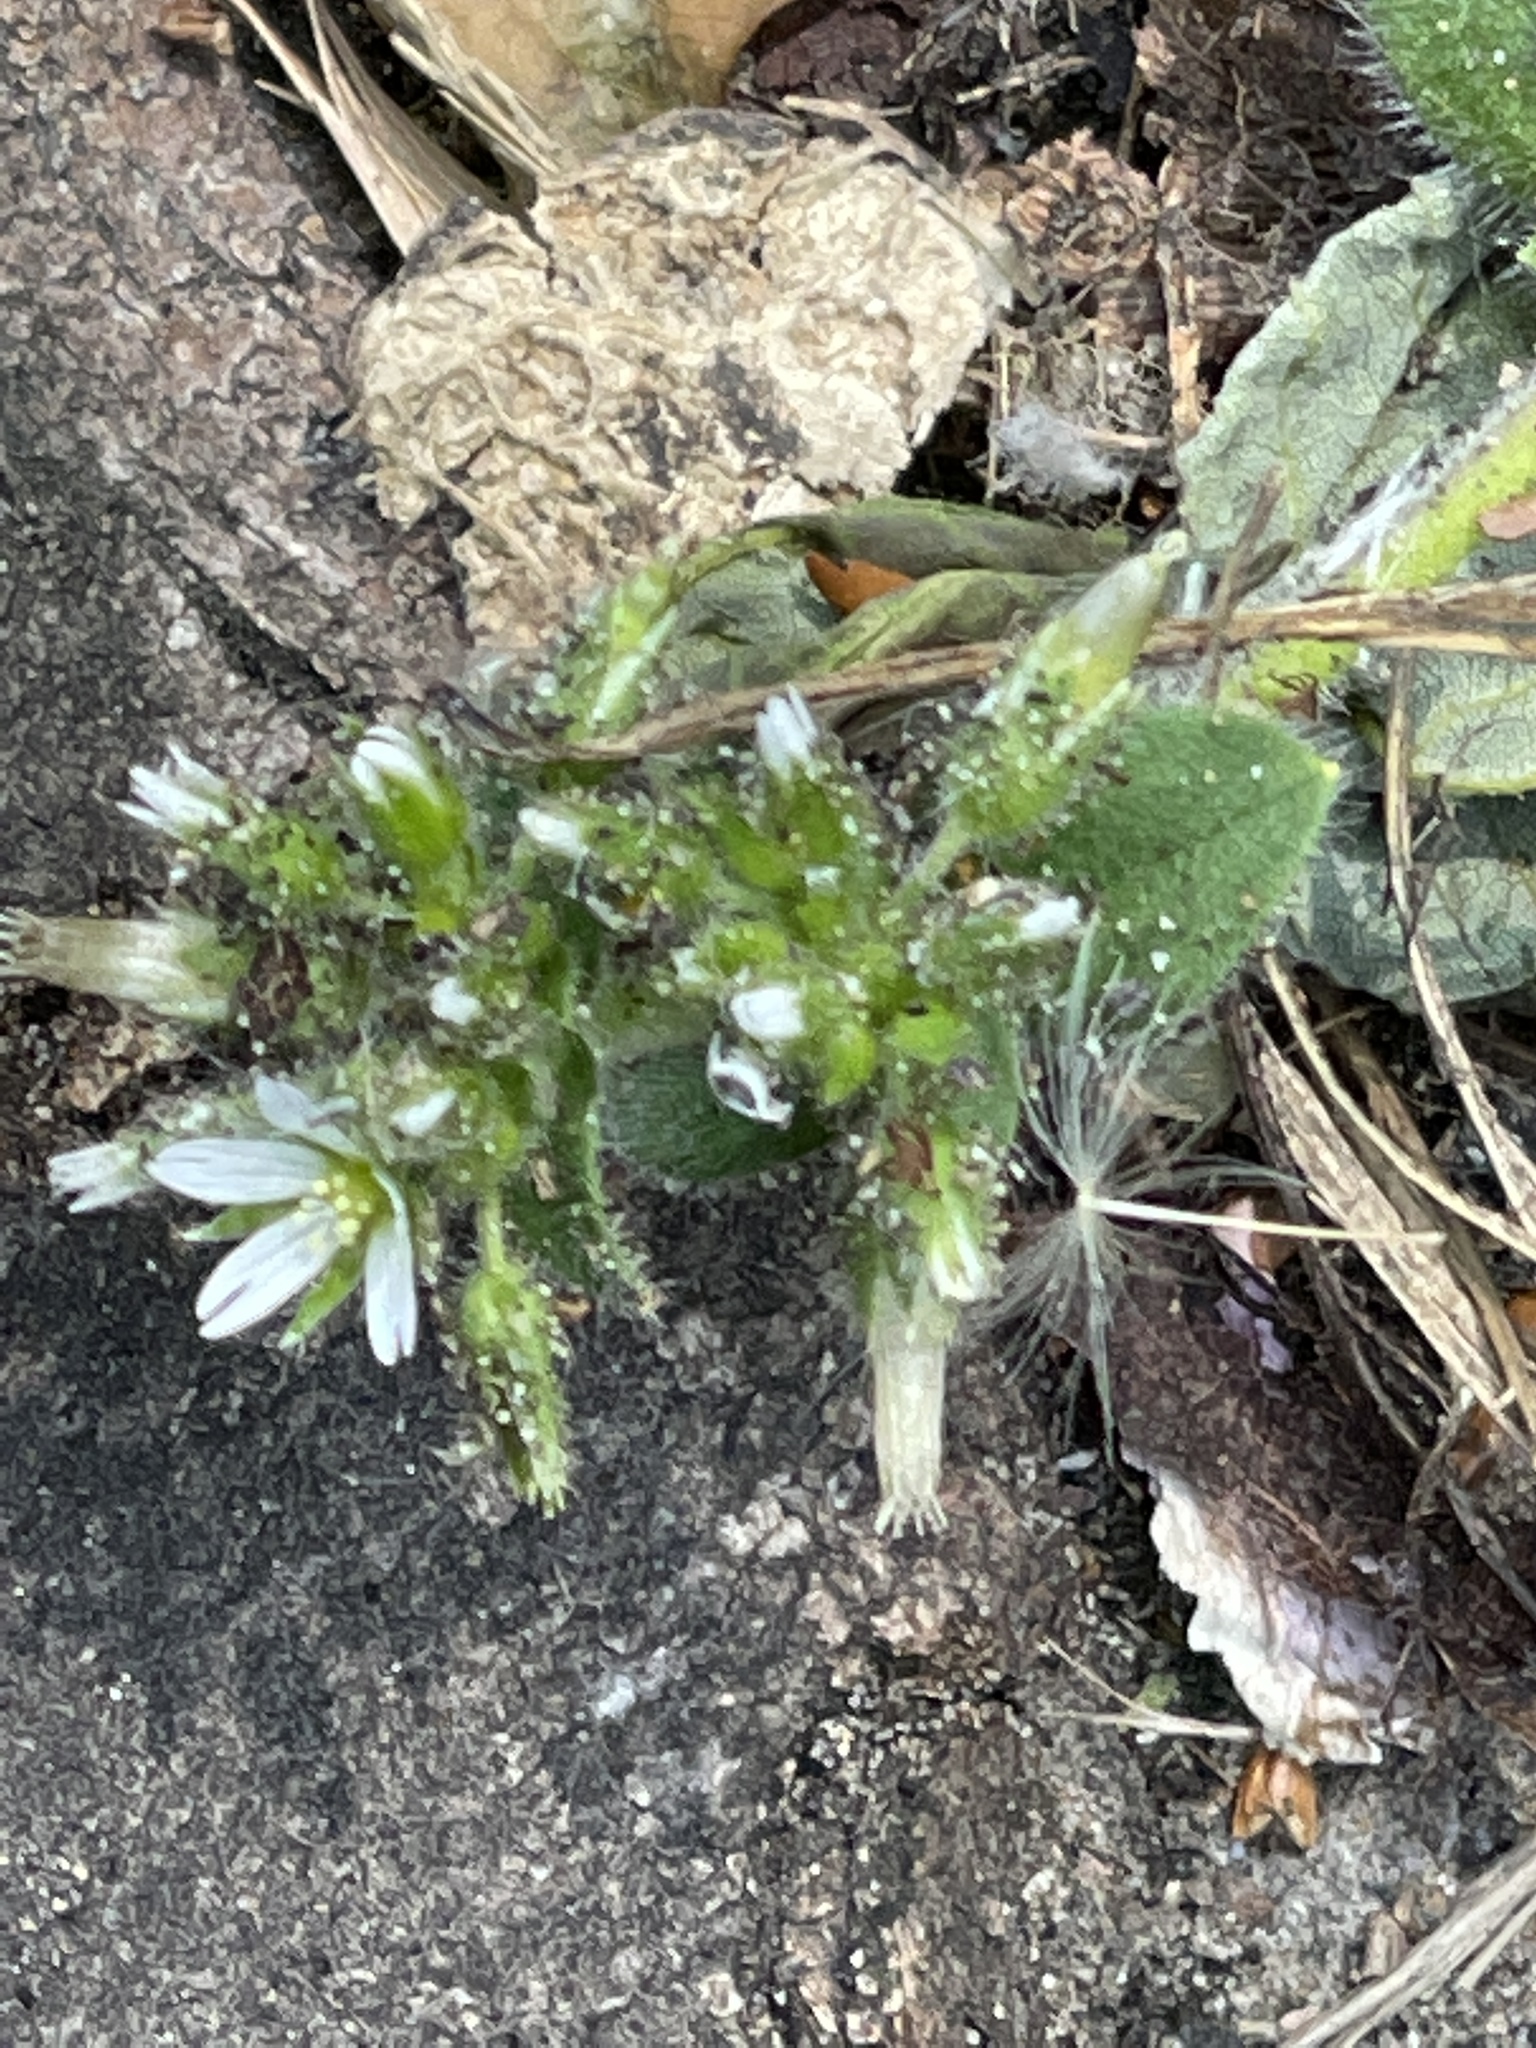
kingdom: Plantae
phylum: Tracheophyta
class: Magnoliopsida
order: Caryophyllales
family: Caryophyllaceae
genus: Cerastium
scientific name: Cerastium glomeratum
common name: Sticky chickweed
